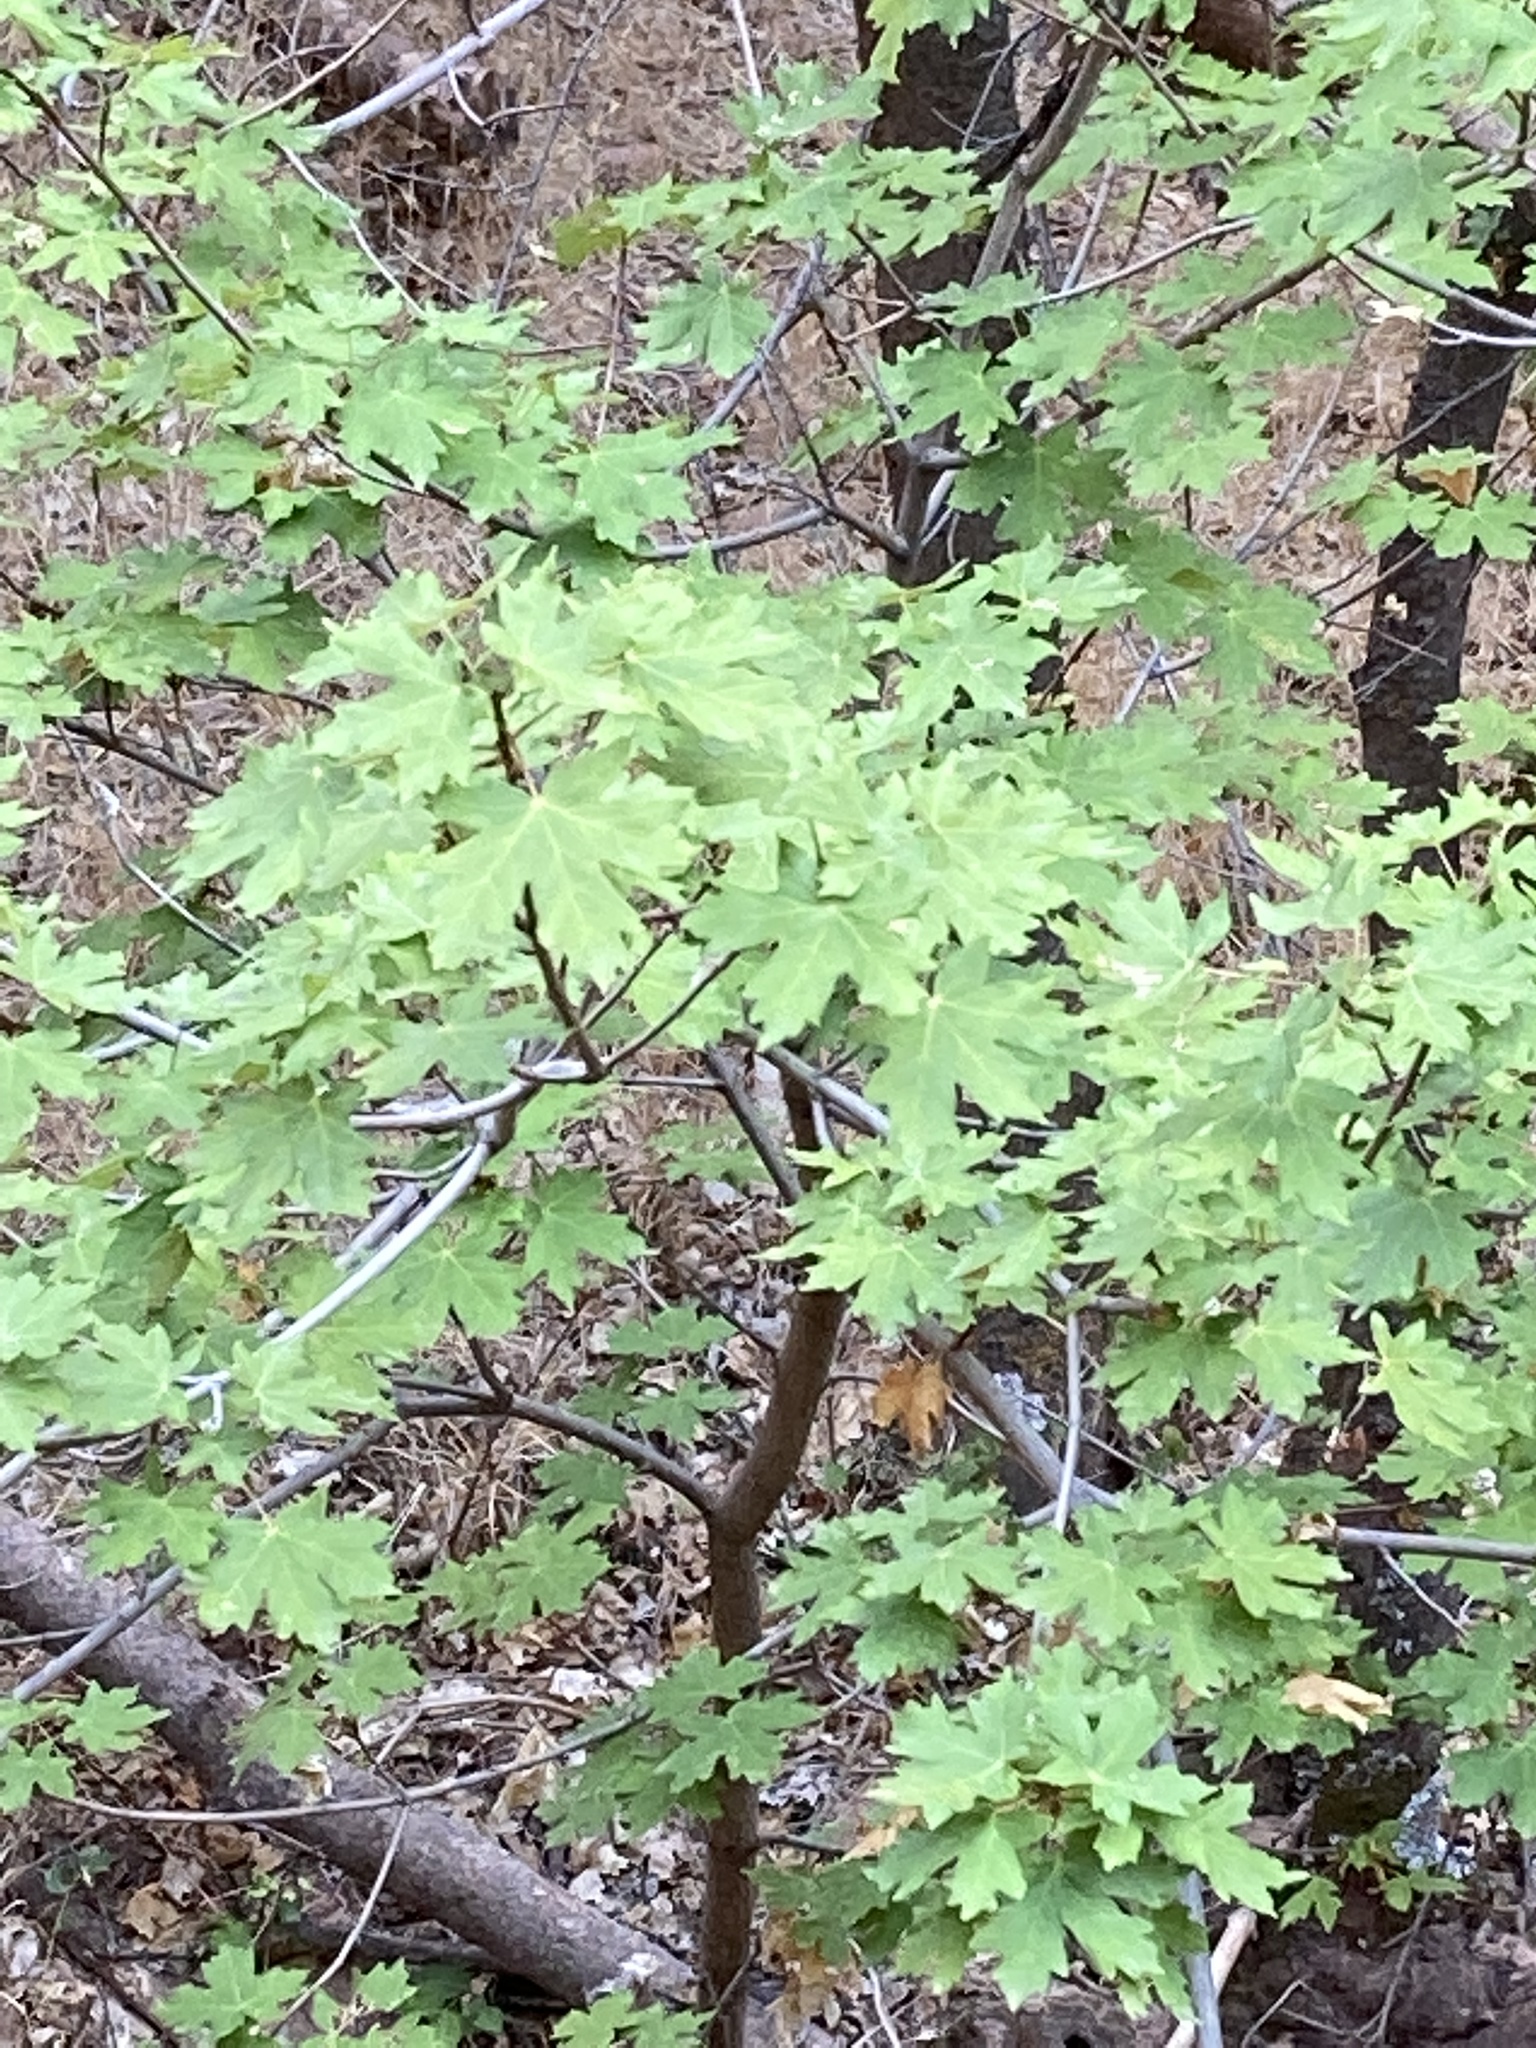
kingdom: Plantae
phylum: Tracheophyta
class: Magnoliopsida
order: Sapindales
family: Sapindaceae
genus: Acer
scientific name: Acer grandidentatum
